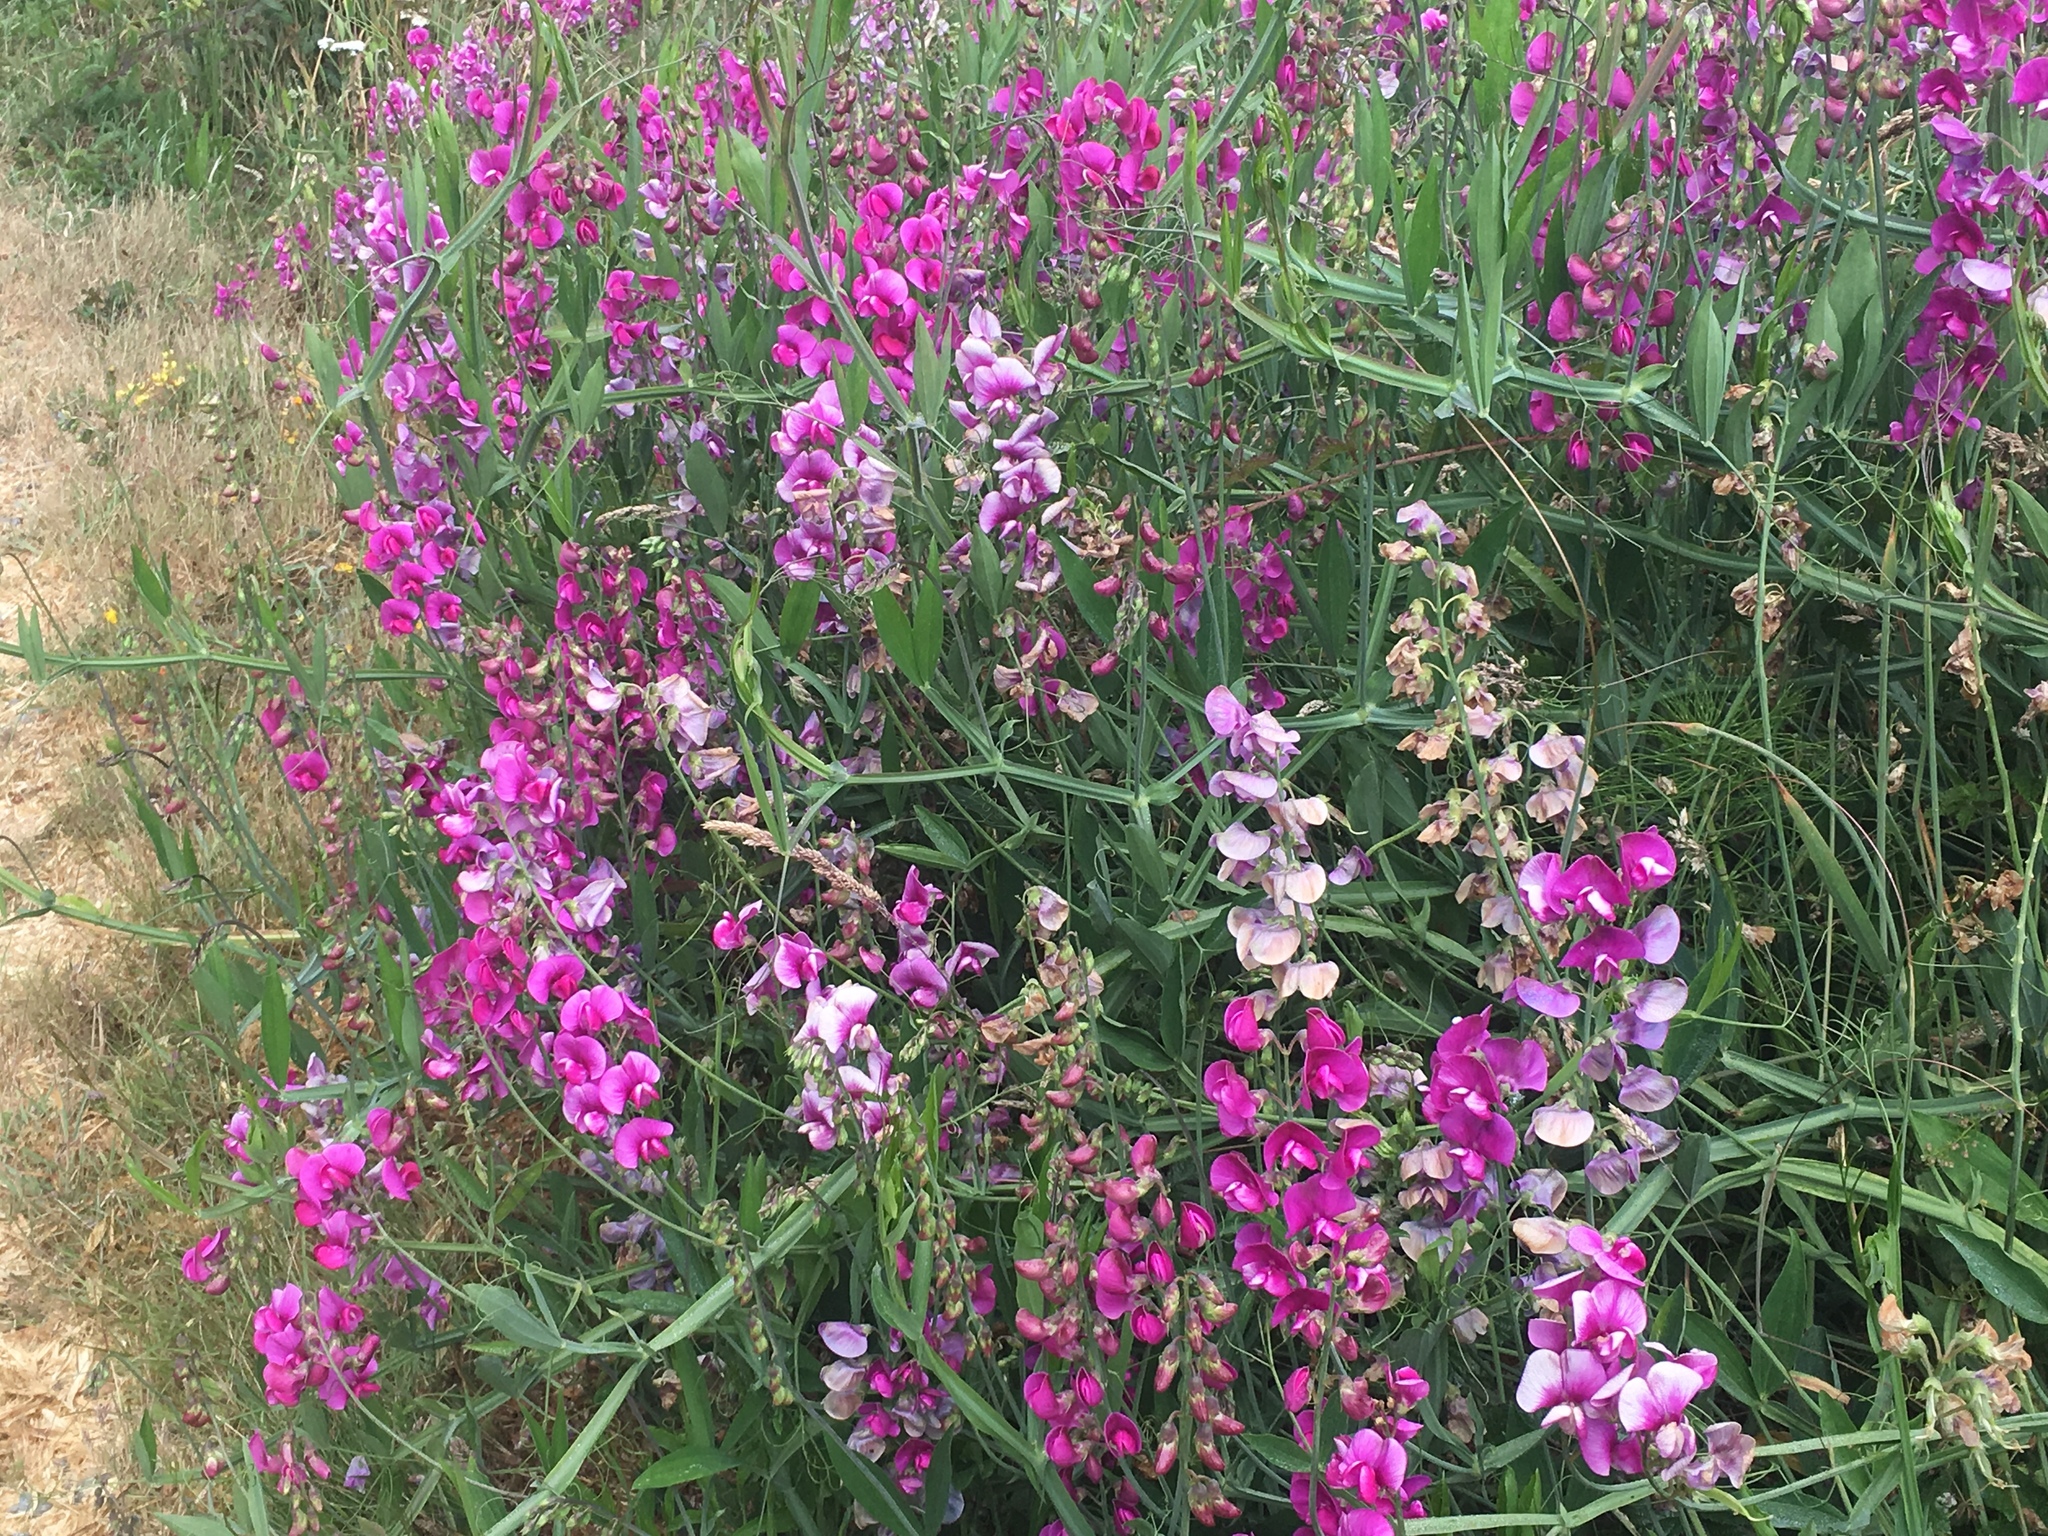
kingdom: Plantae
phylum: Tracheophyta
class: Magnoliopsida
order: Fabales
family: Fabaceae
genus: Lathyrus
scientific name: Lathyrus latifolius
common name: Perennial pea
